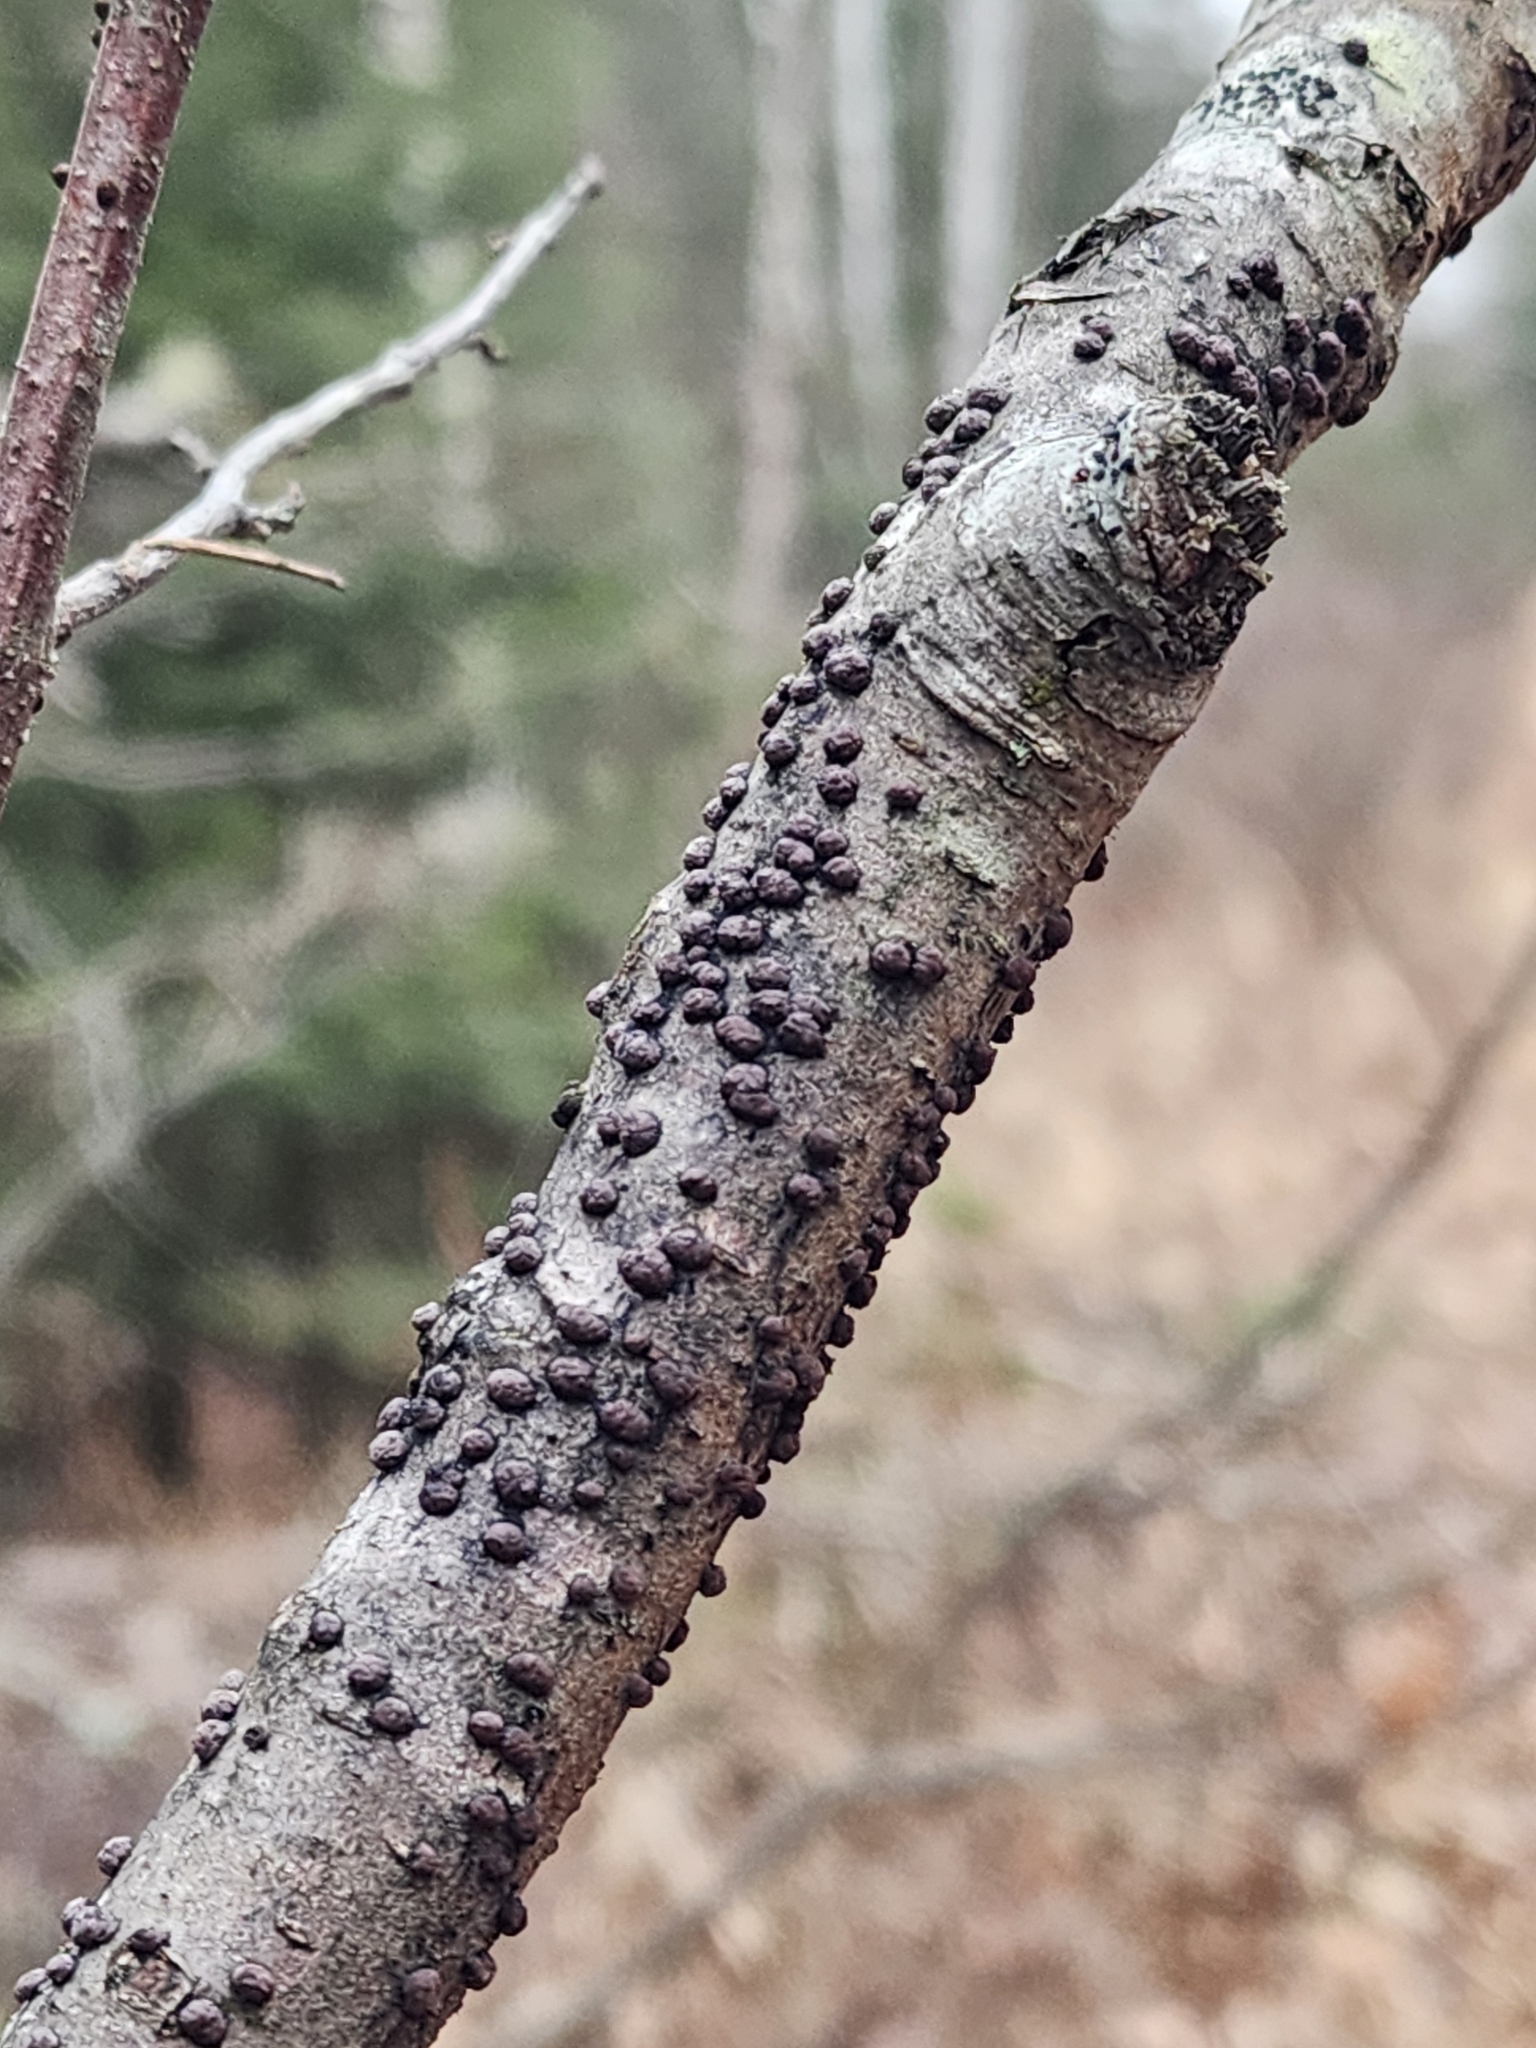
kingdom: Fungi
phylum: Ascomycota
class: Sordariomycetes
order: Xylariales
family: Hypoxylaceae
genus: Hypoxylon
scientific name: Hypoxylon fuscum
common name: Hazel woodwart
